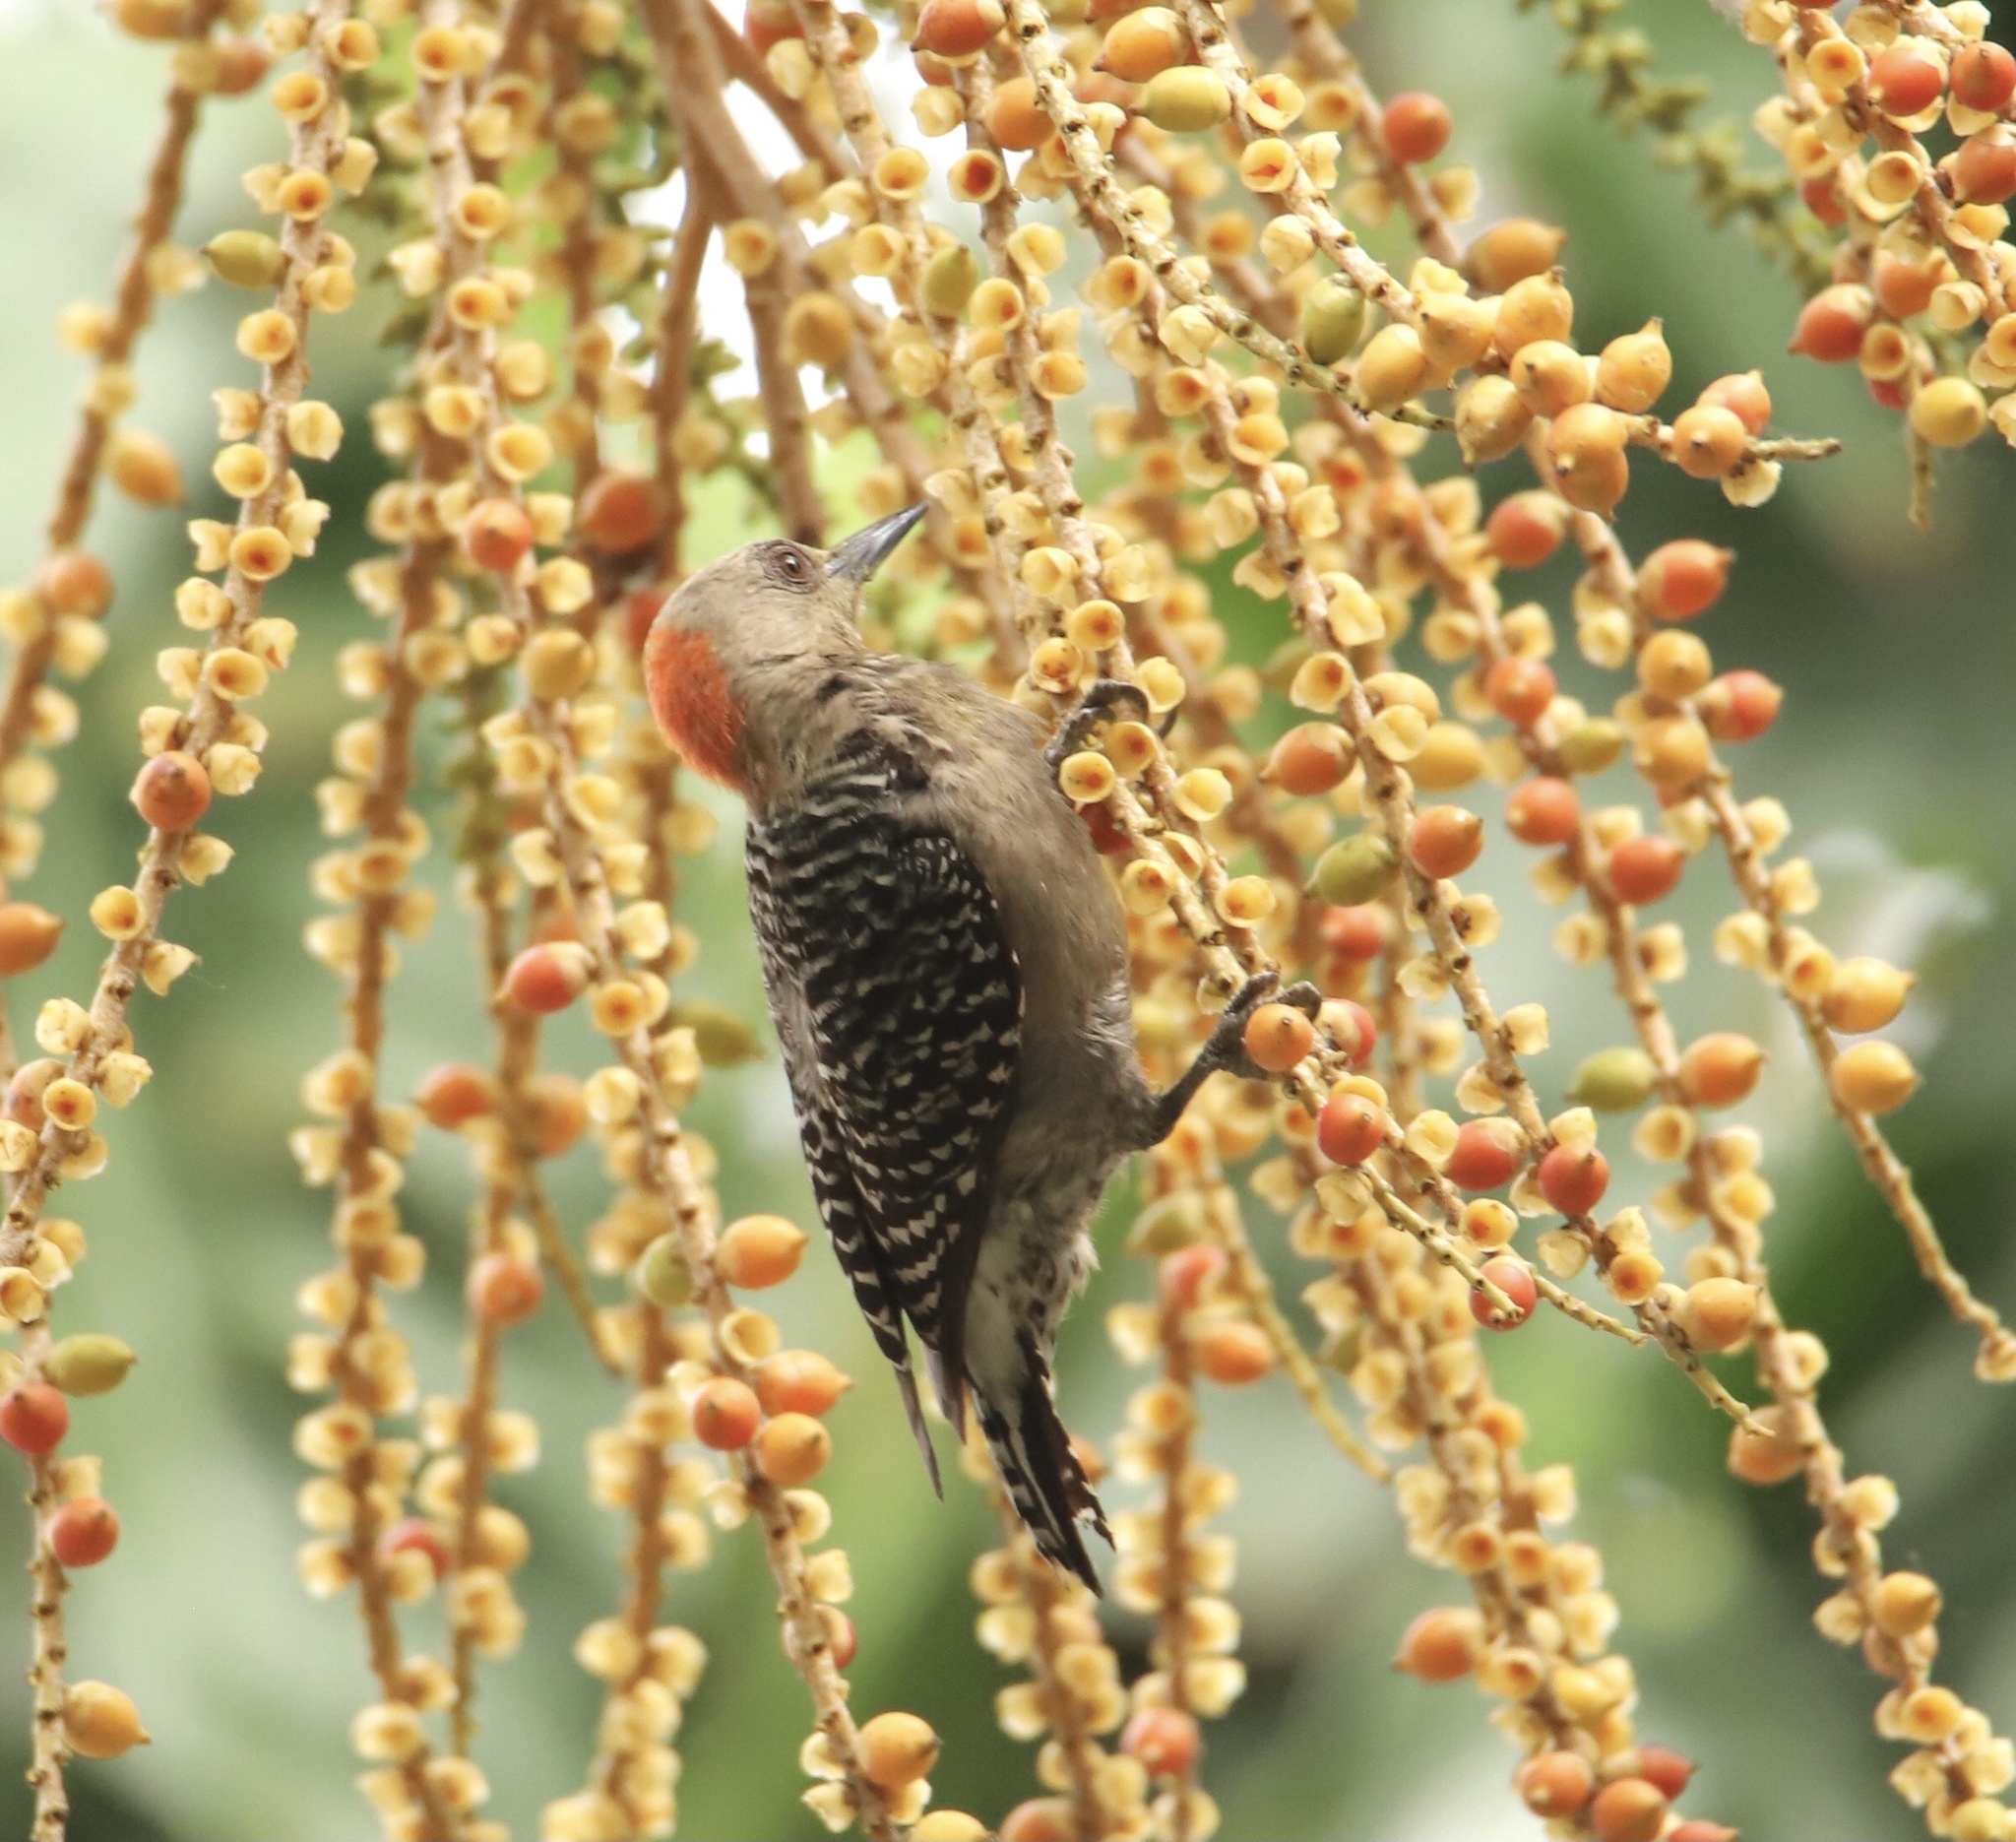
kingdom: Animalia
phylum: Chordata
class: Aves
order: Piciformes
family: Picidae
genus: Melanerpes
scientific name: Melanerpes rubricapillus
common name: Red-crowned woodpecker
